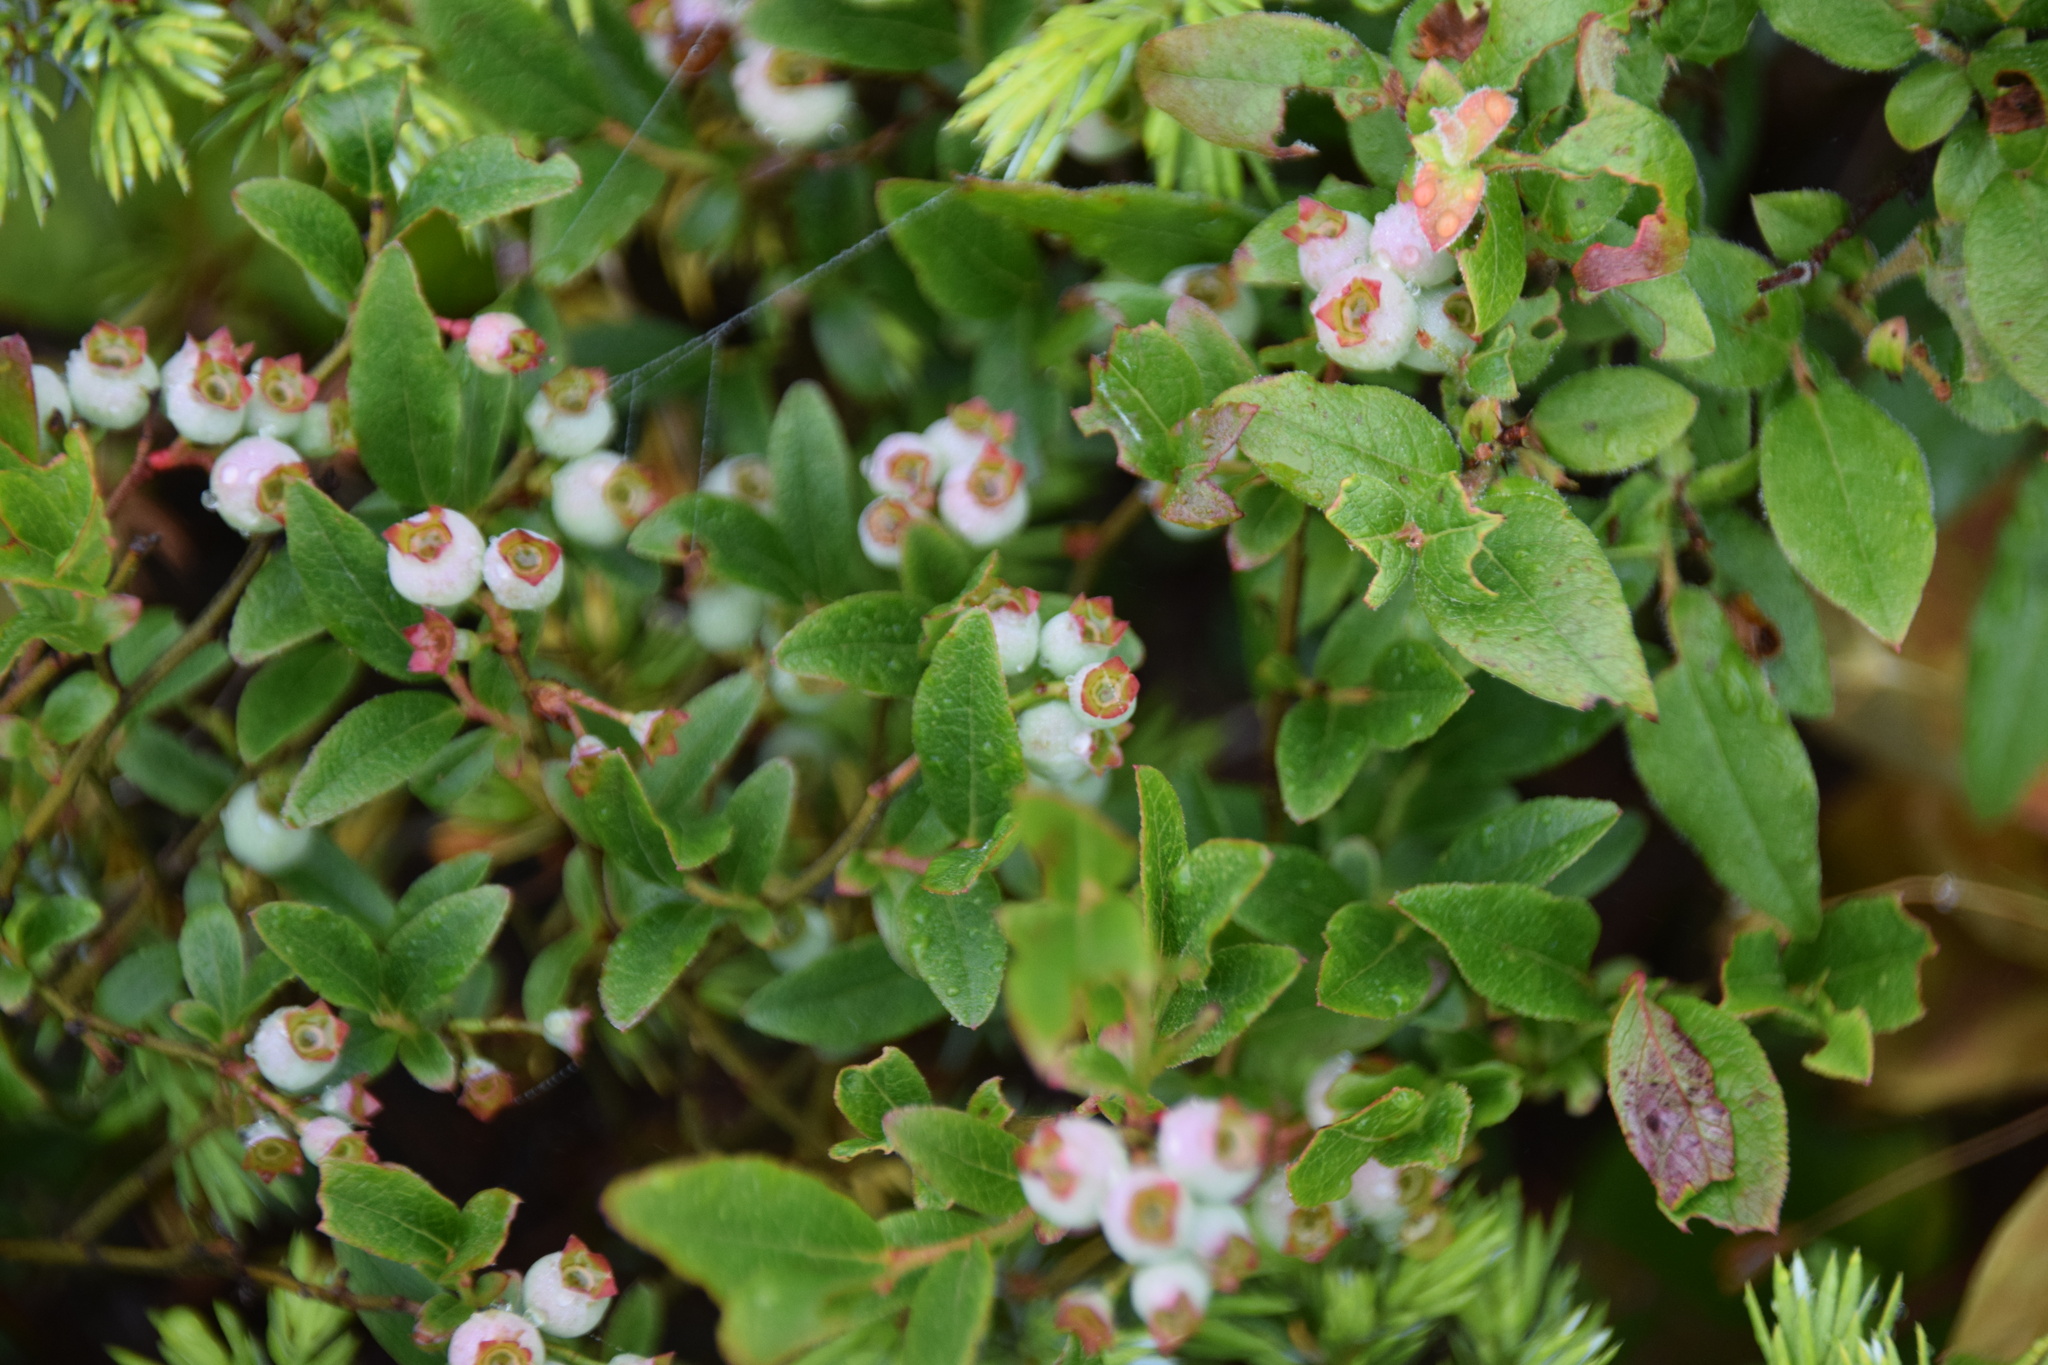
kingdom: Plantae
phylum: Tracheophyta
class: Magnoliopsida
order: Ericales
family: Ericaceae
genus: Vaccinium
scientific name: Vaccinium angustifolium
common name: Early lowbush blueberry
